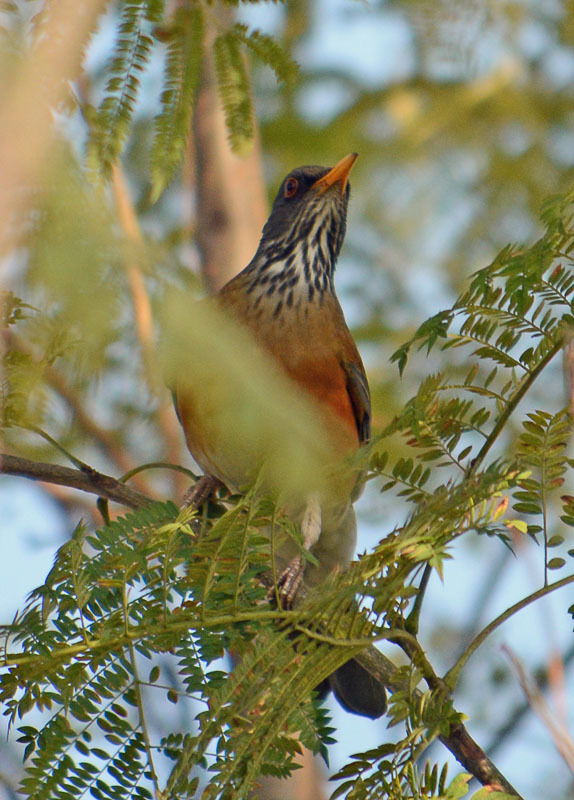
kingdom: Animalia
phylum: Chordata
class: Aves
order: Passeriformes
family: Turdidae
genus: Turdus
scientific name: Turdus rufopalliatus
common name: Rufous-backed robin
